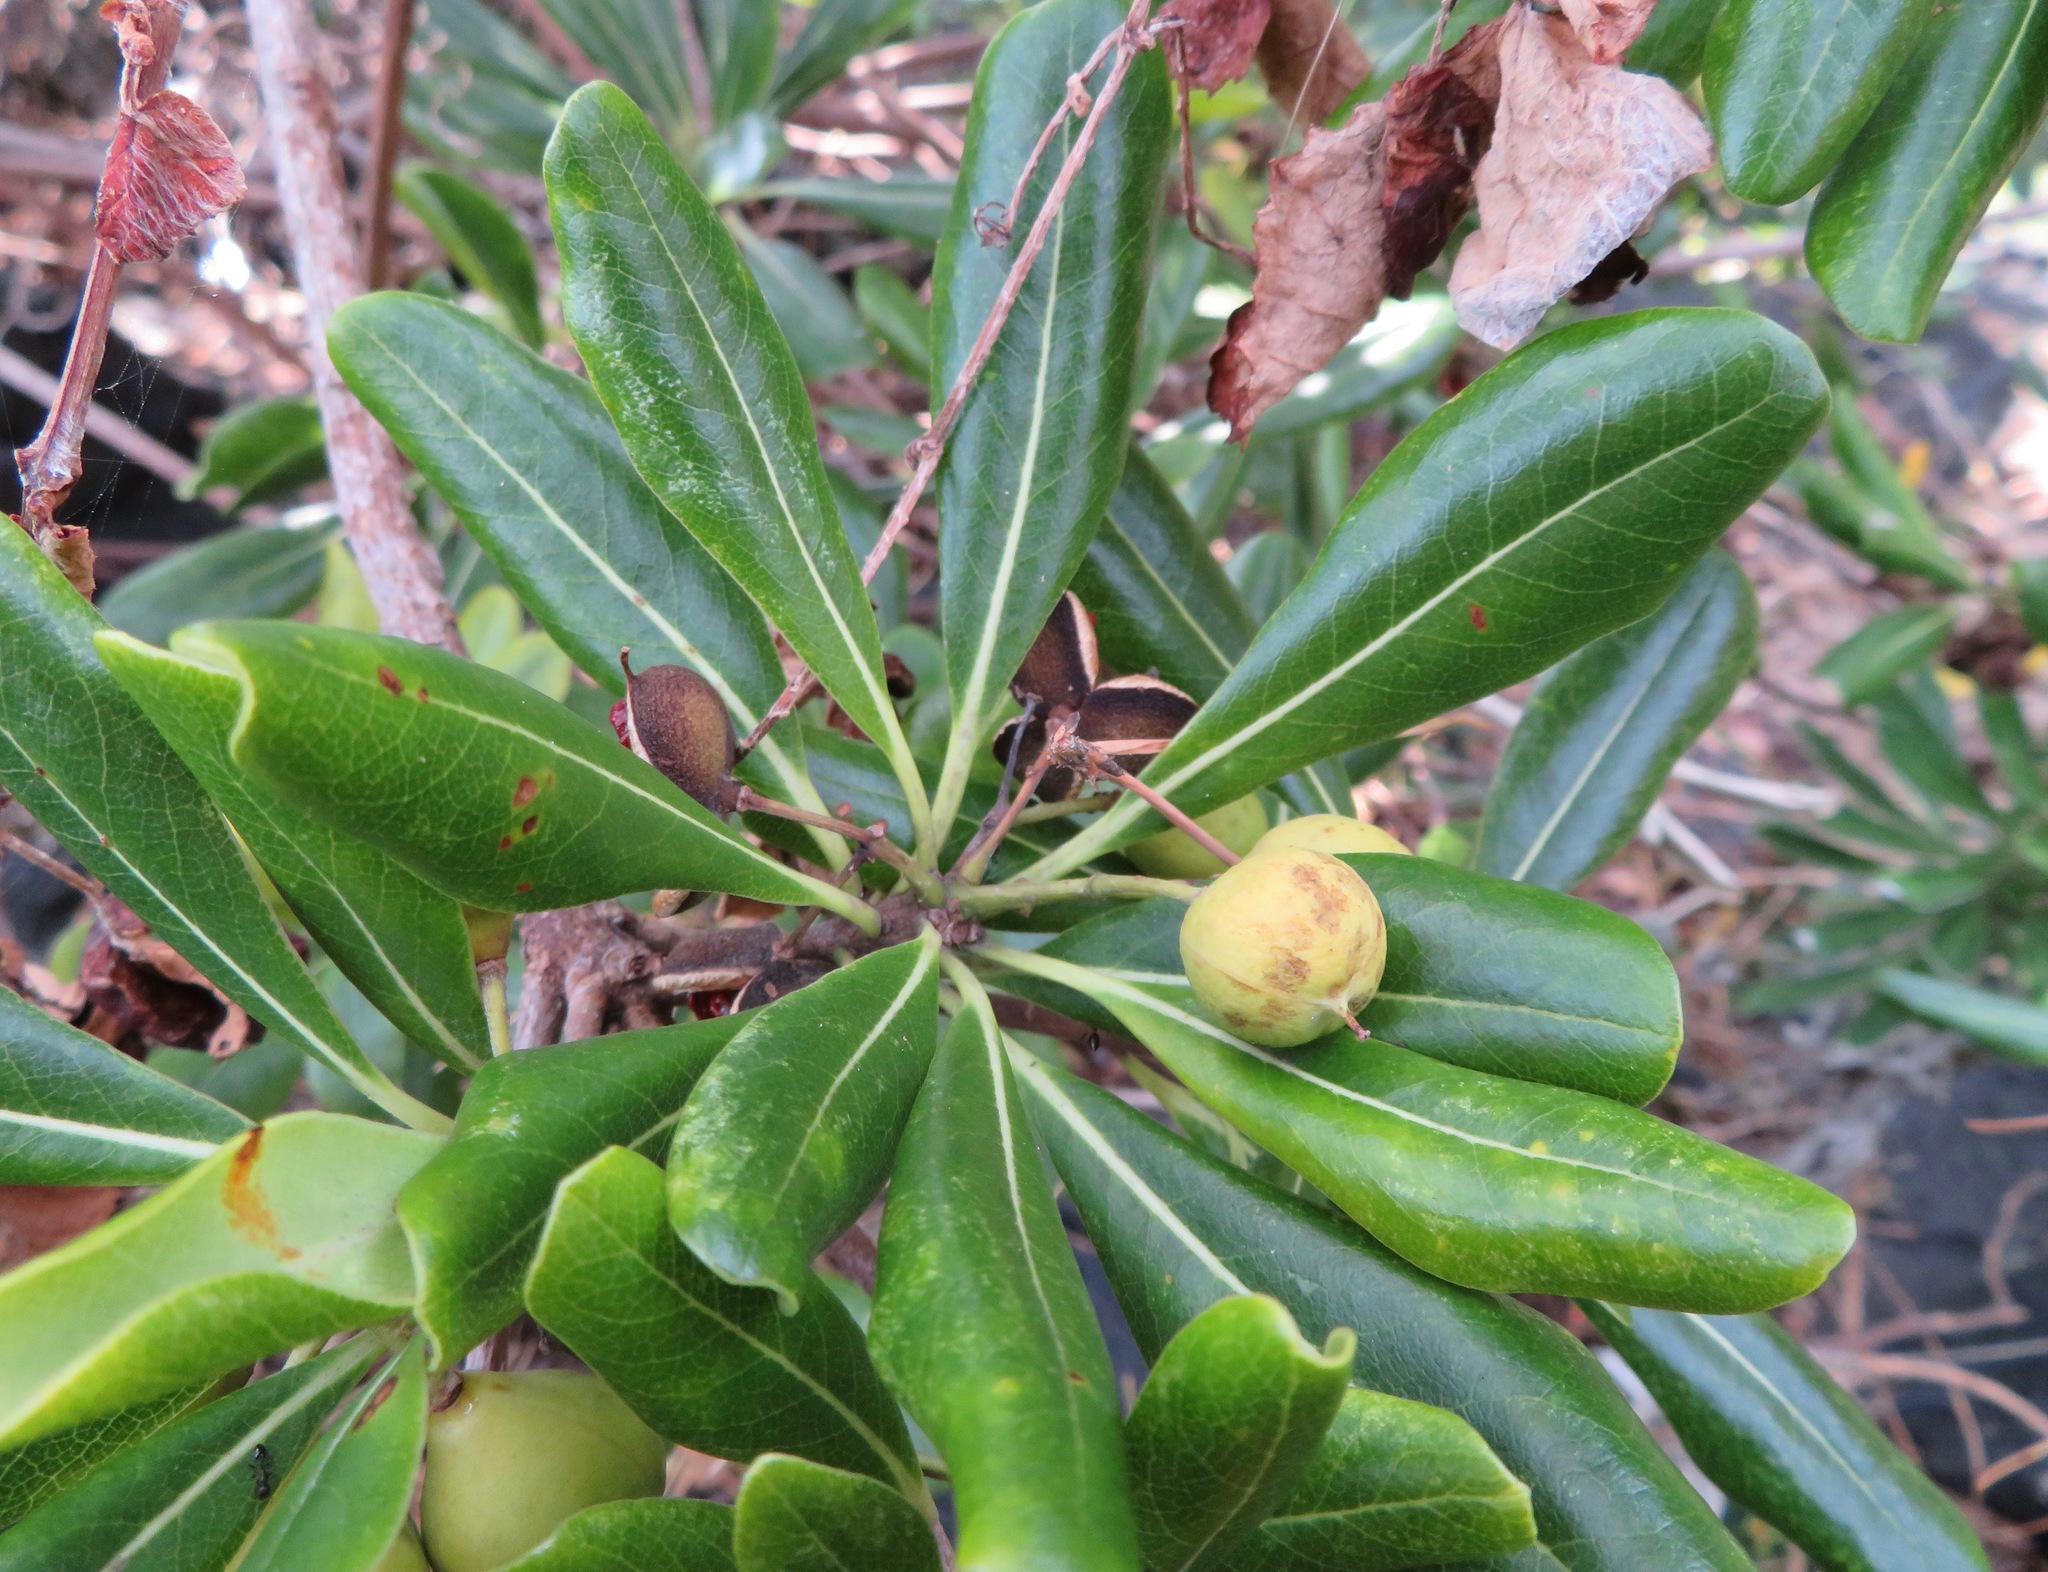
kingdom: Plantae
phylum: Tracheophyta
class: Magnoliopsida
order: Apiales
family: Pittosporaceae
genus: Pittosporum
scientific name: Pittosporum tobira
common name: Japanese cheesewood
